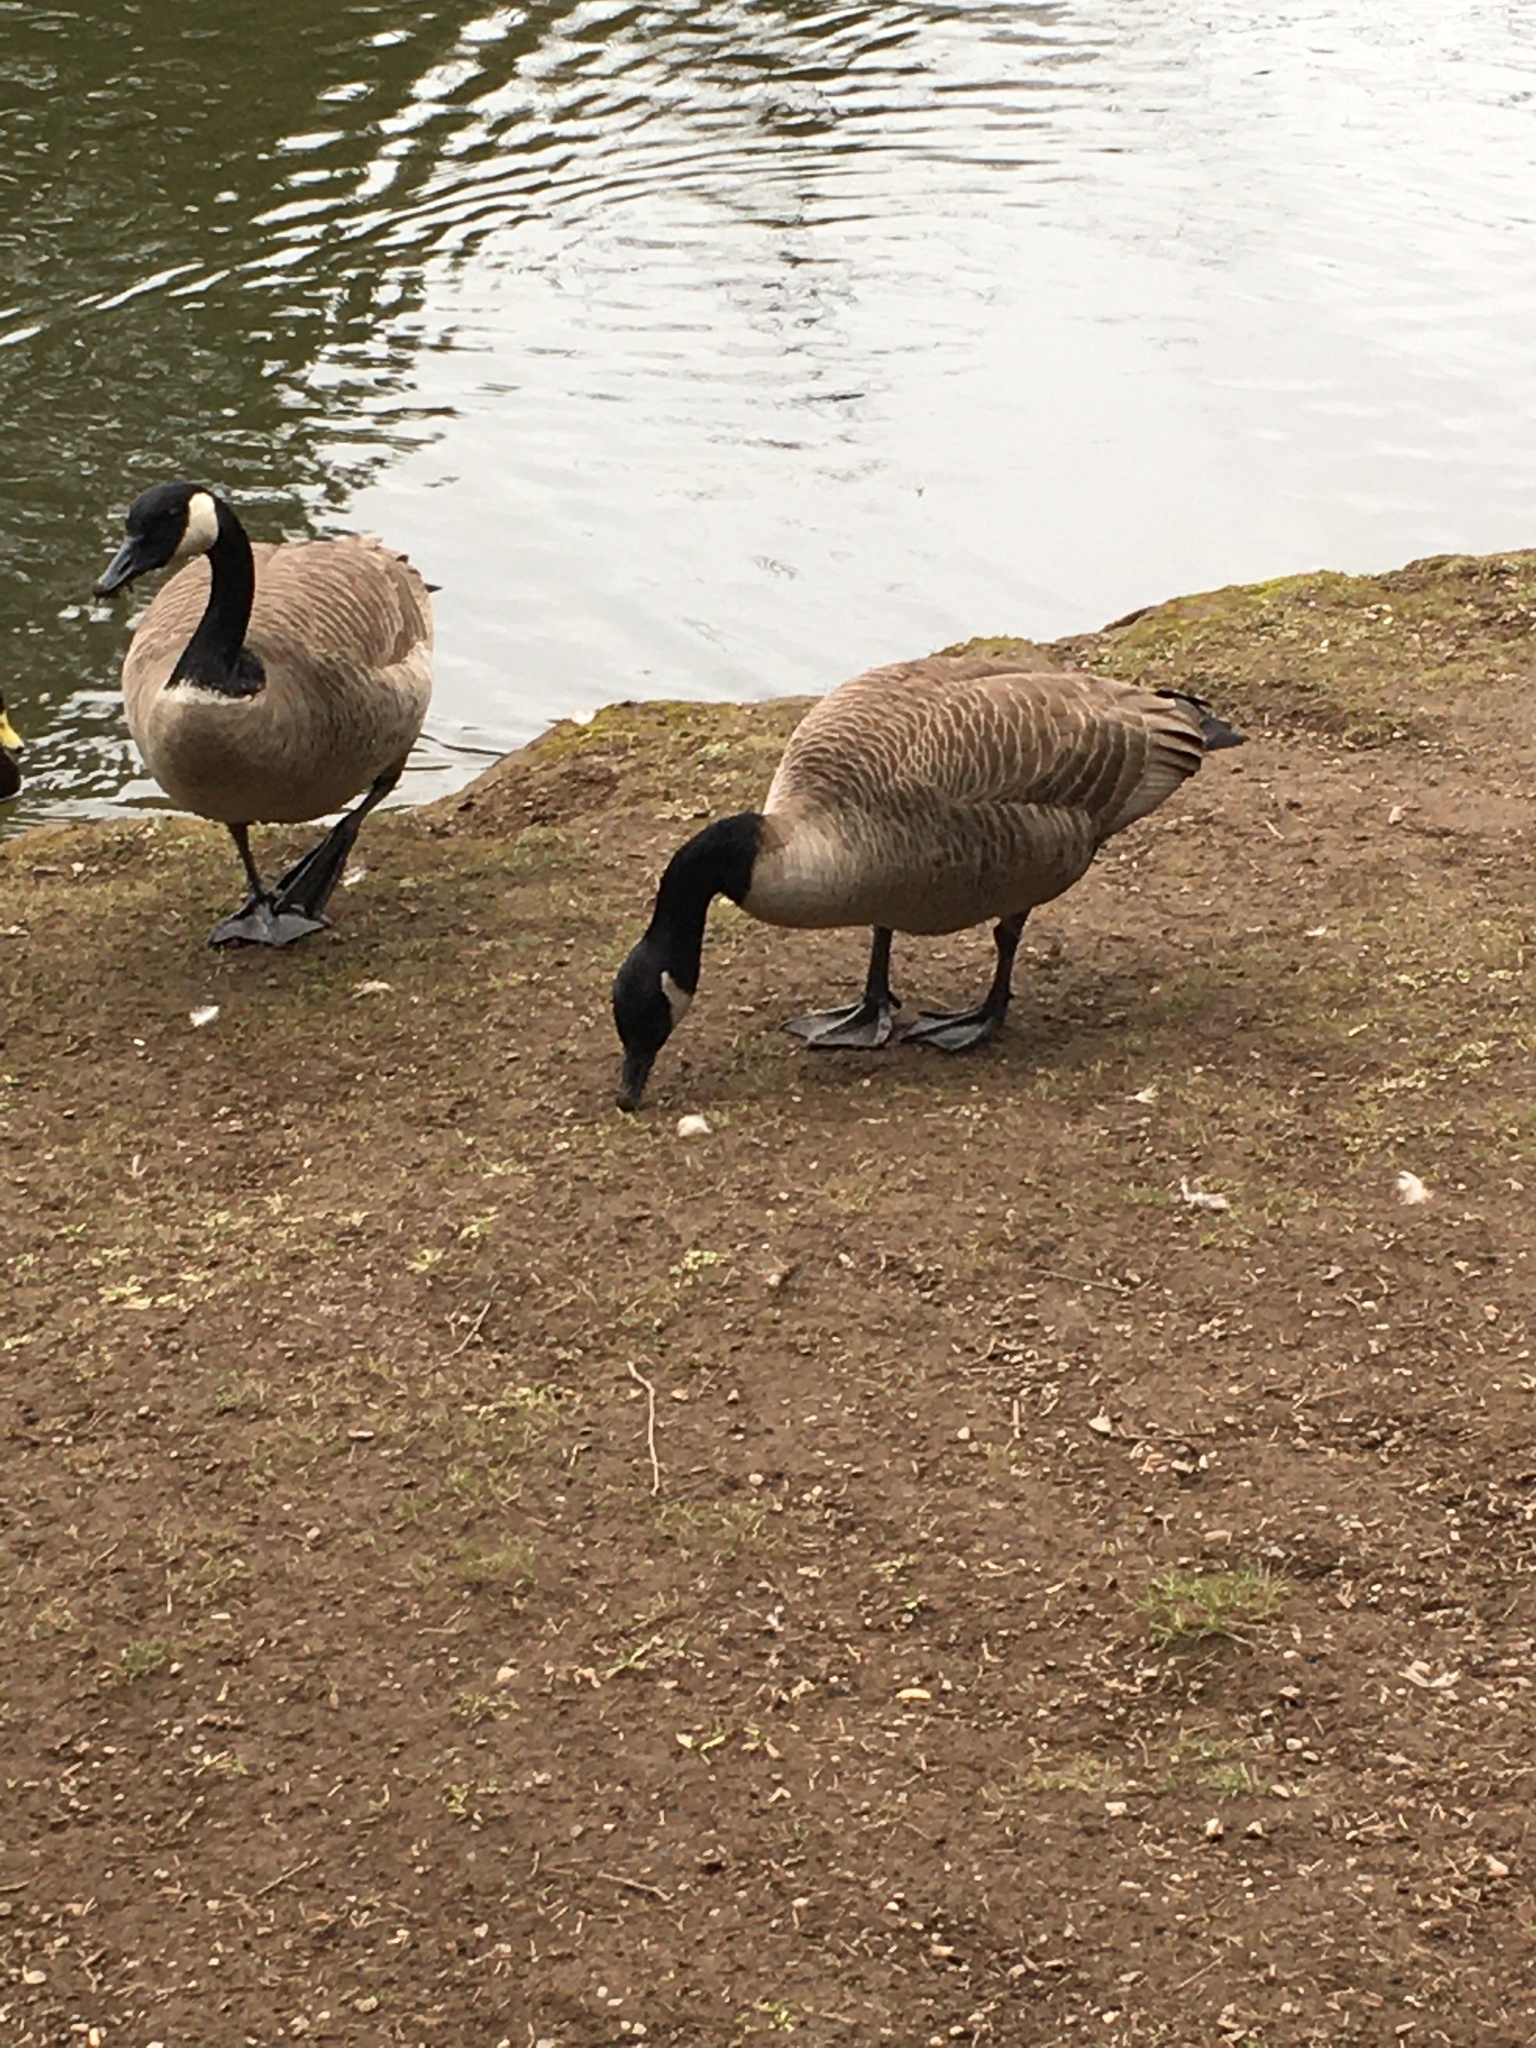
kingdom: Animalia
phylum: Chordata
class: Aves
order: Anseriformes
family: Anatidae
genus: Branta
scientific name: Branta canadensis
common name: Canada goose
